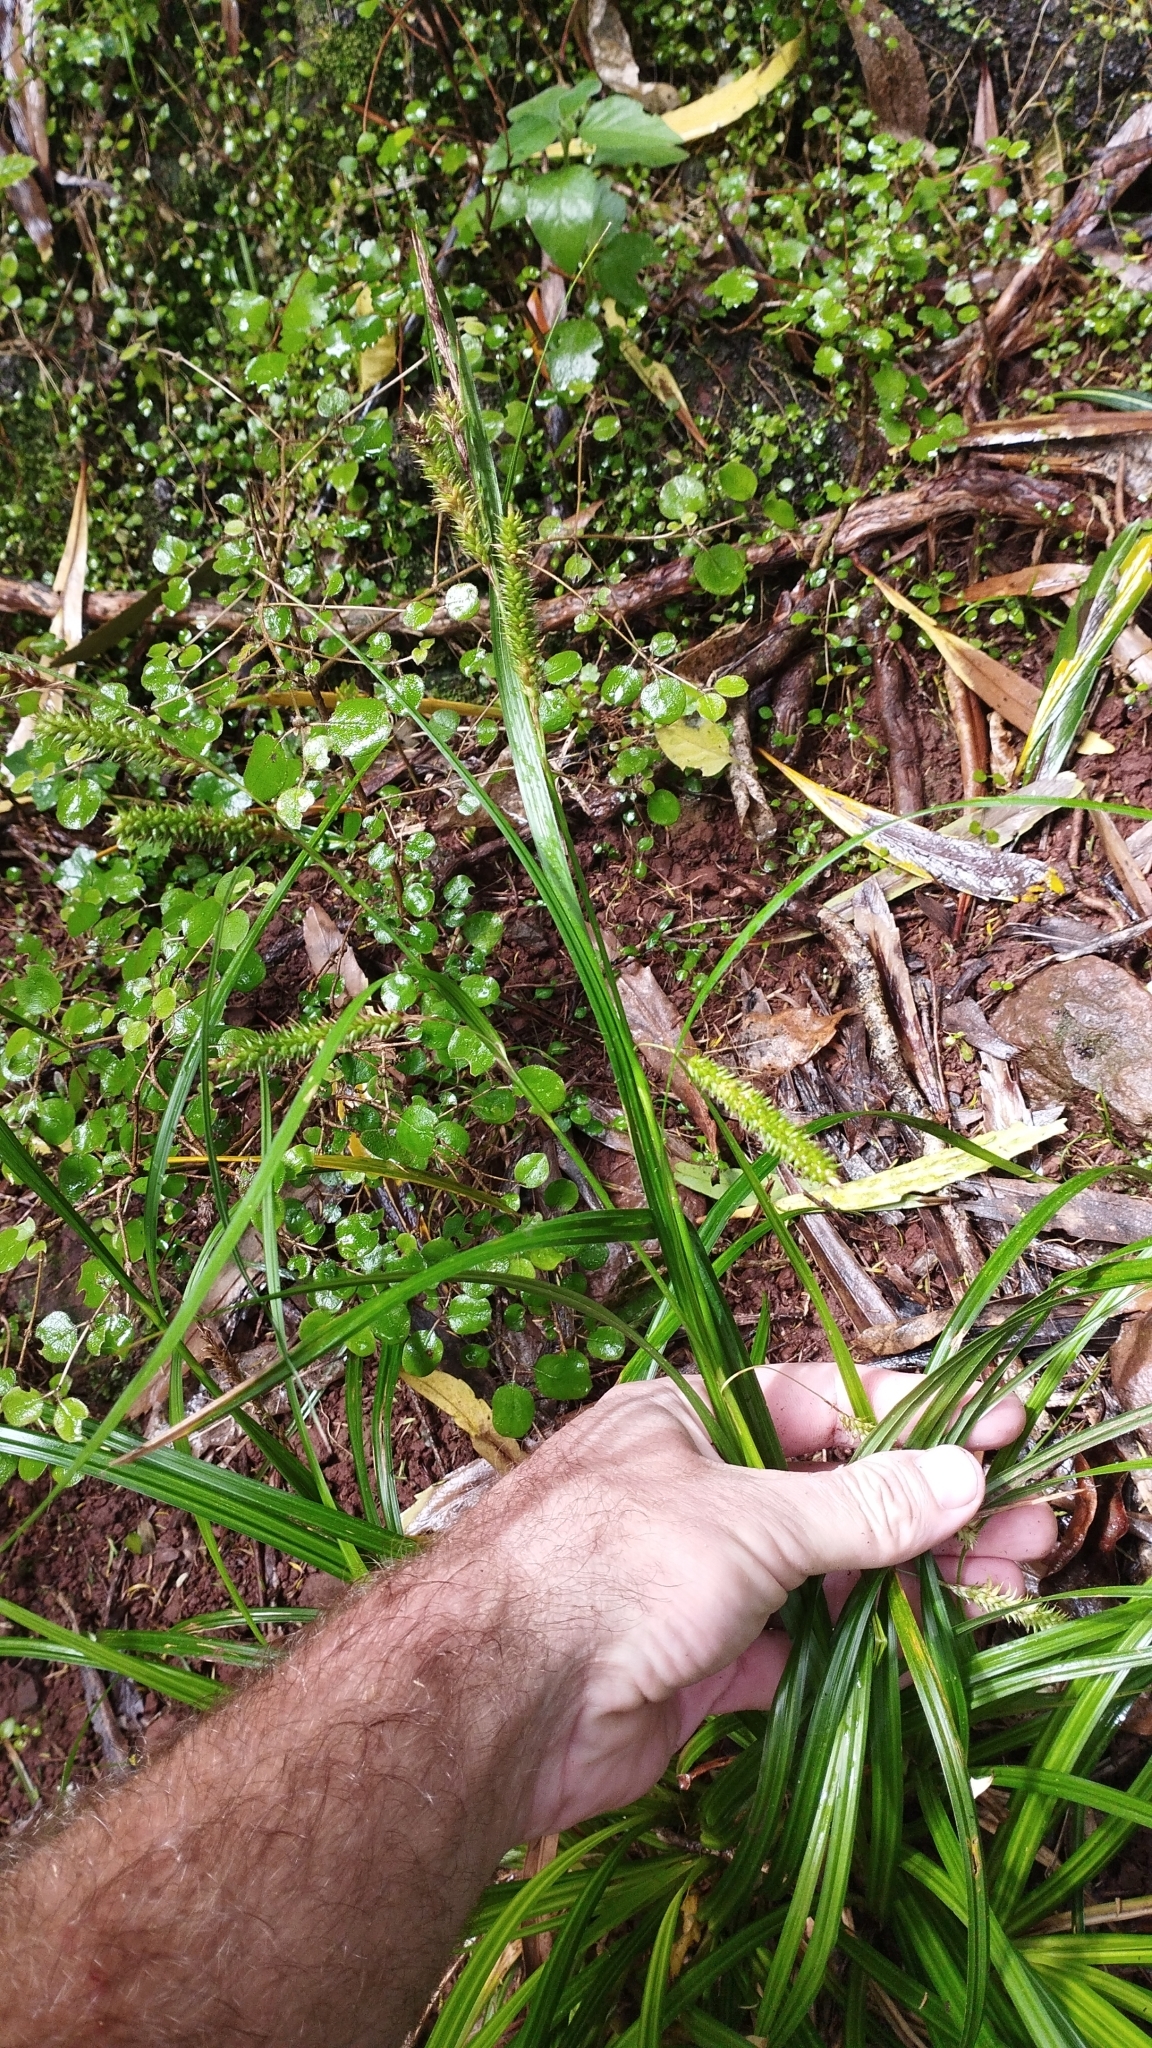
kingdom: Plantae
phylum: Tracheophyta
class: Liliopsida
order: Poales
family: Cyperaceae
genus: Carex
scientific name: Carex forsteri
